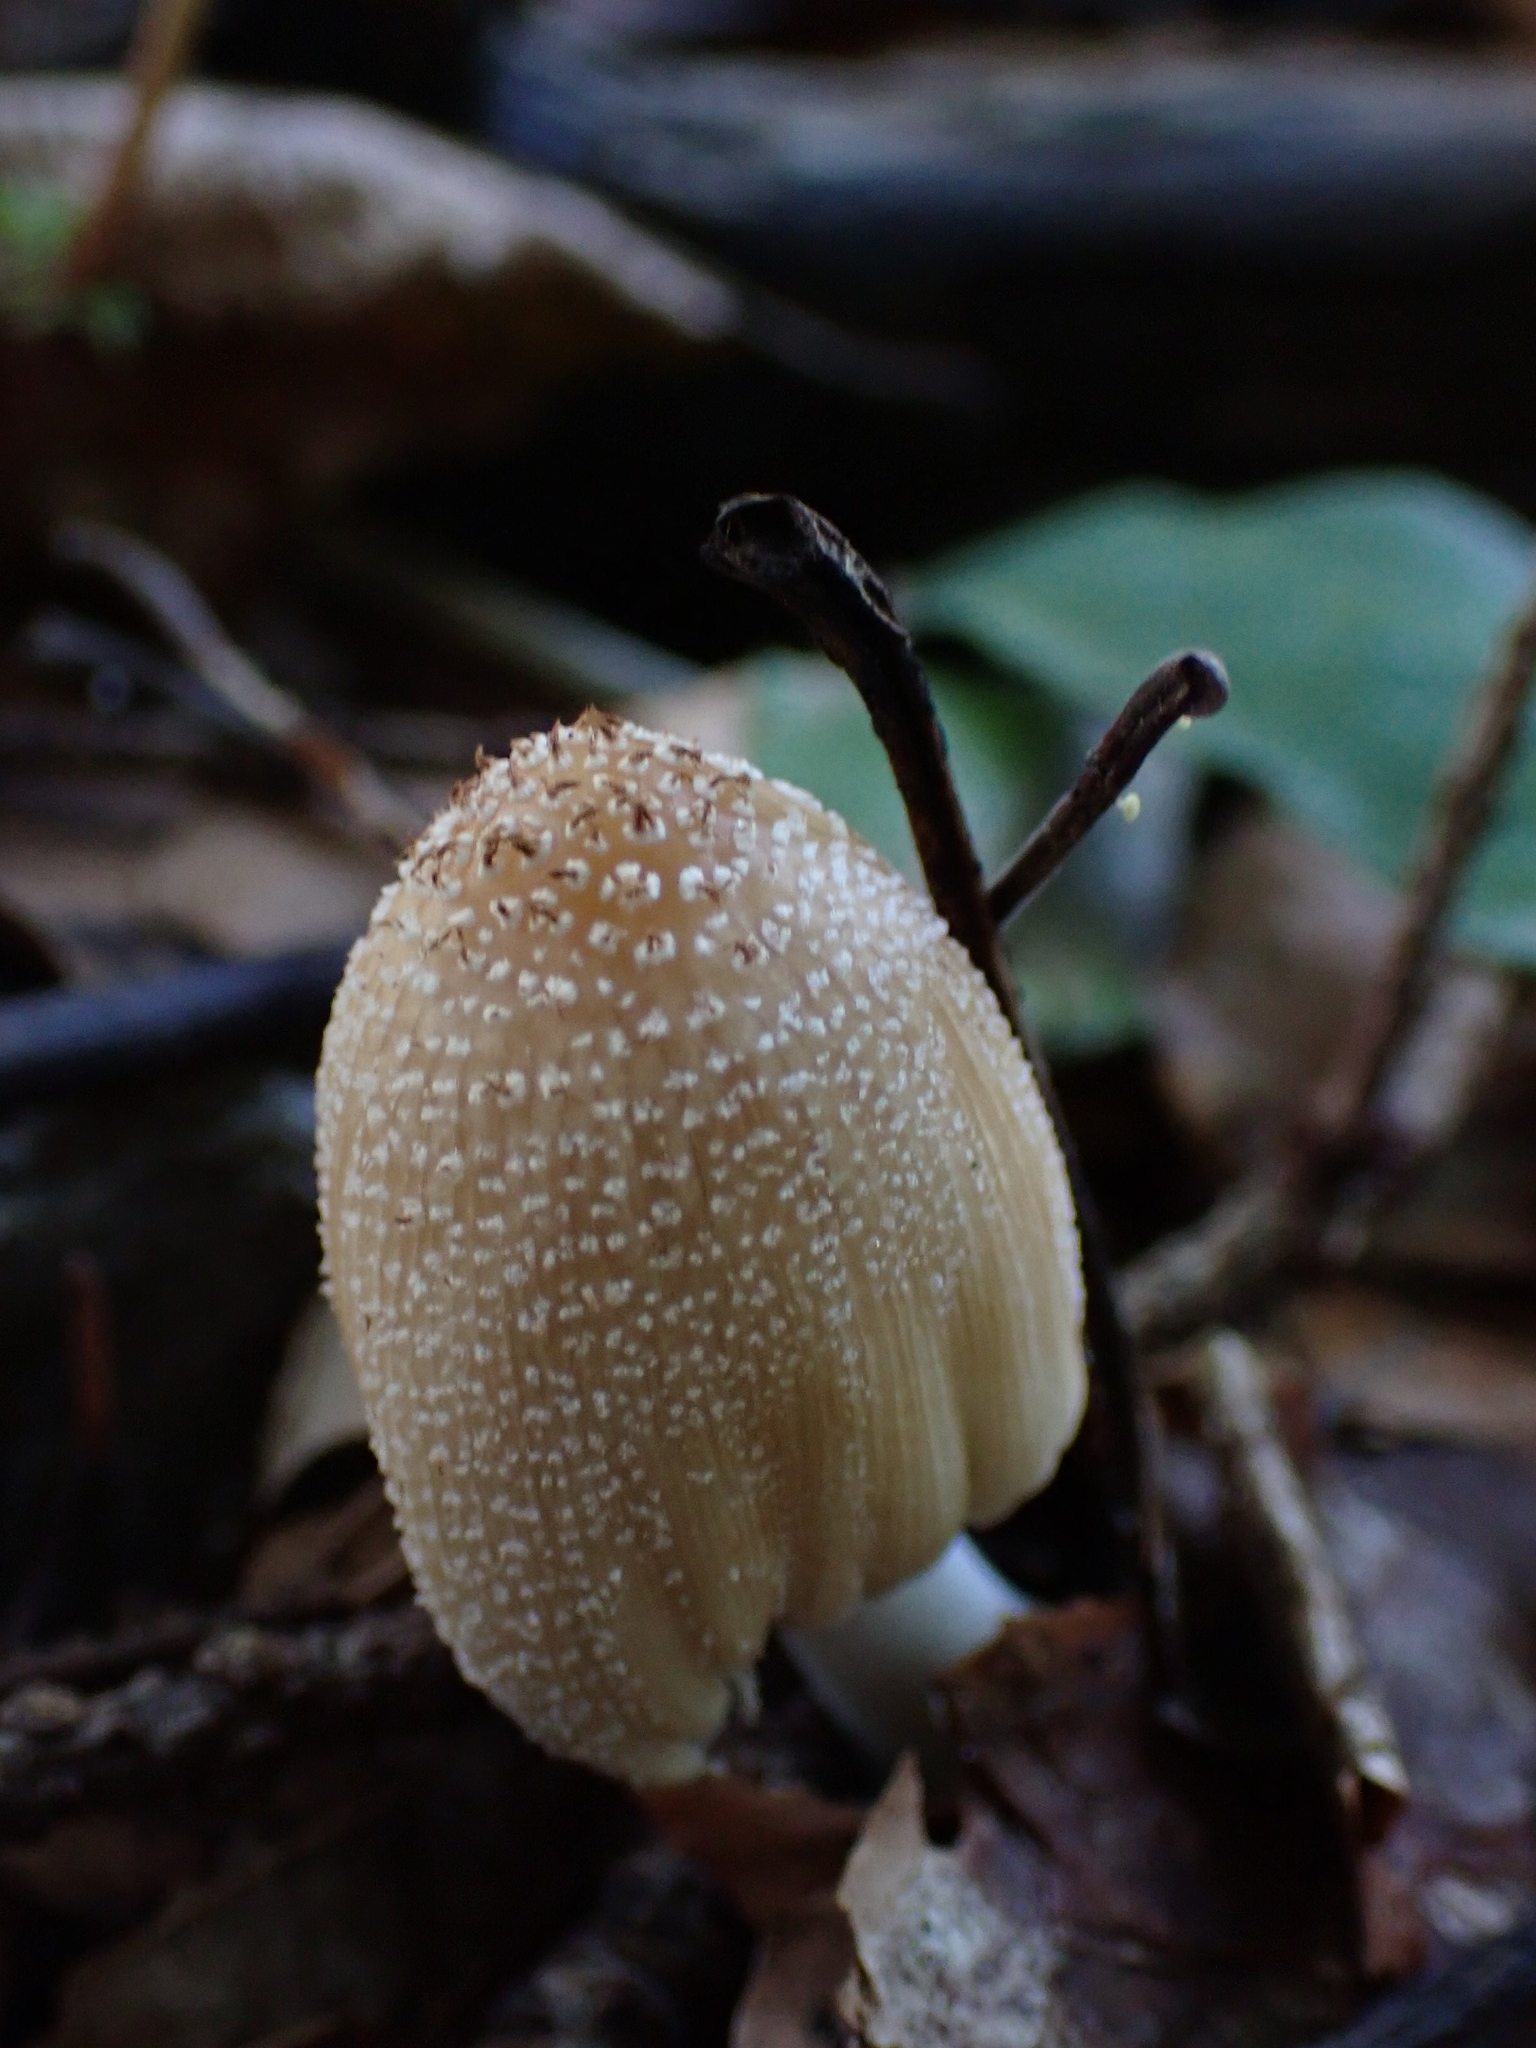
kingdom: Fungi
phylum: Basidiomycota
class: Agaricomycetes
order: Agaricales
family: Psathyrellaceae
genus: Coprinellus
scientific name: Coprinellus micaceus
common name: Glistening ink-cap
